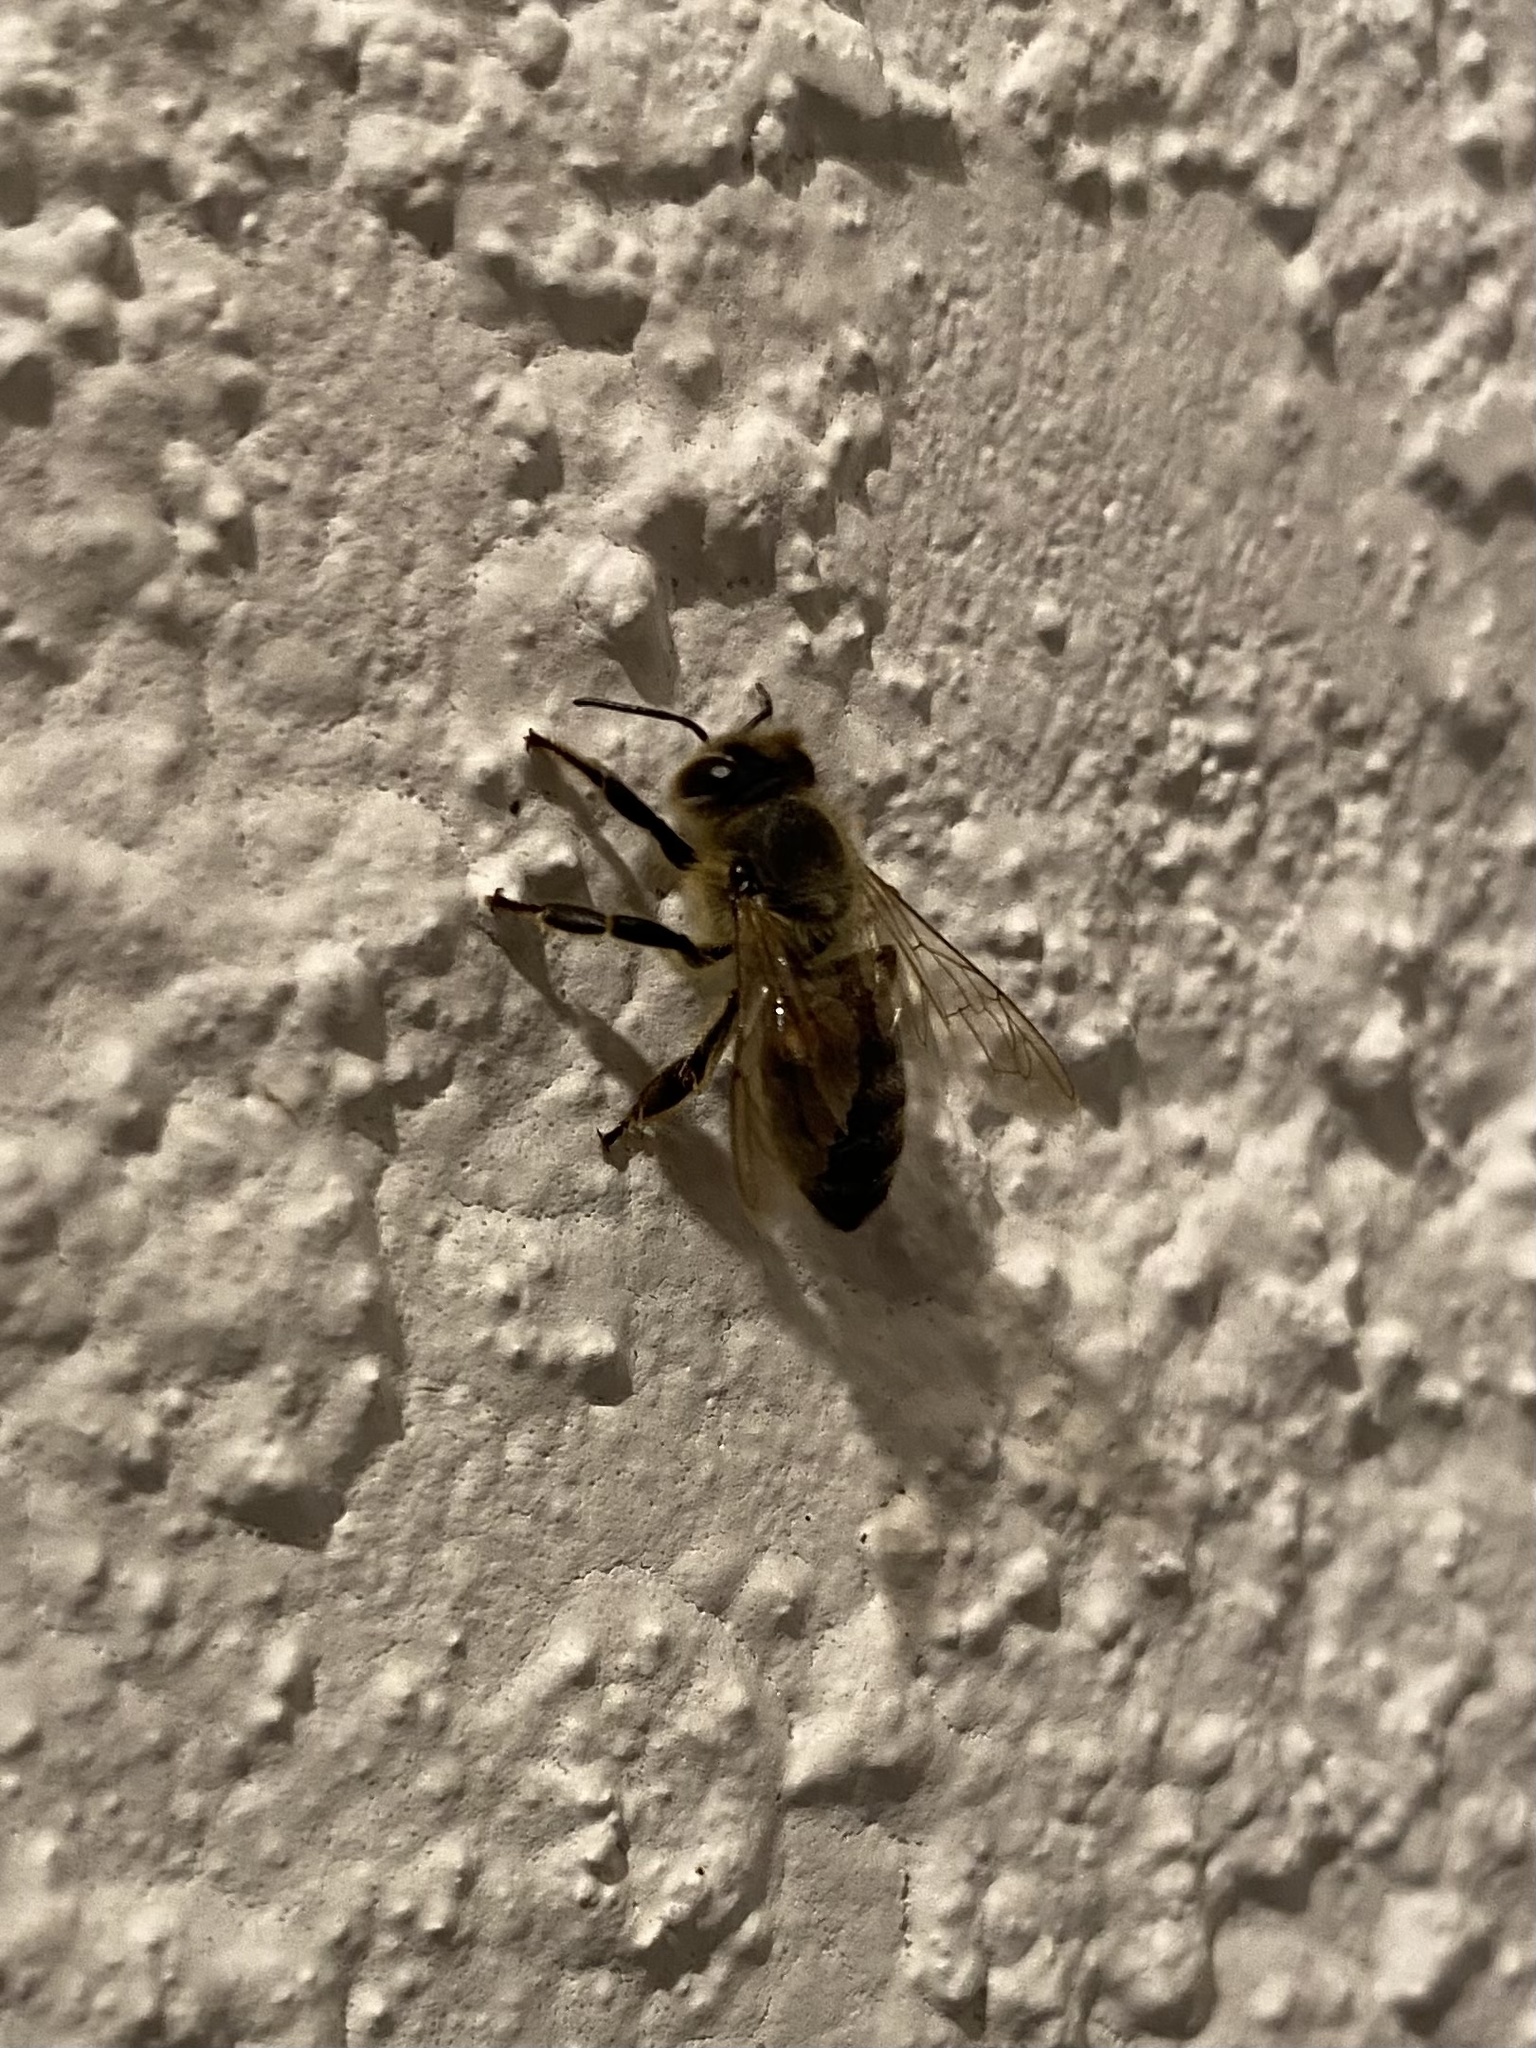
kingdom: Animalia
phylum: Arthropoda
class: Insecta
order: Hymenoptera
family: Apidae
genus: Apis
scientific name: Apis mellifera
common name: Honey bee
